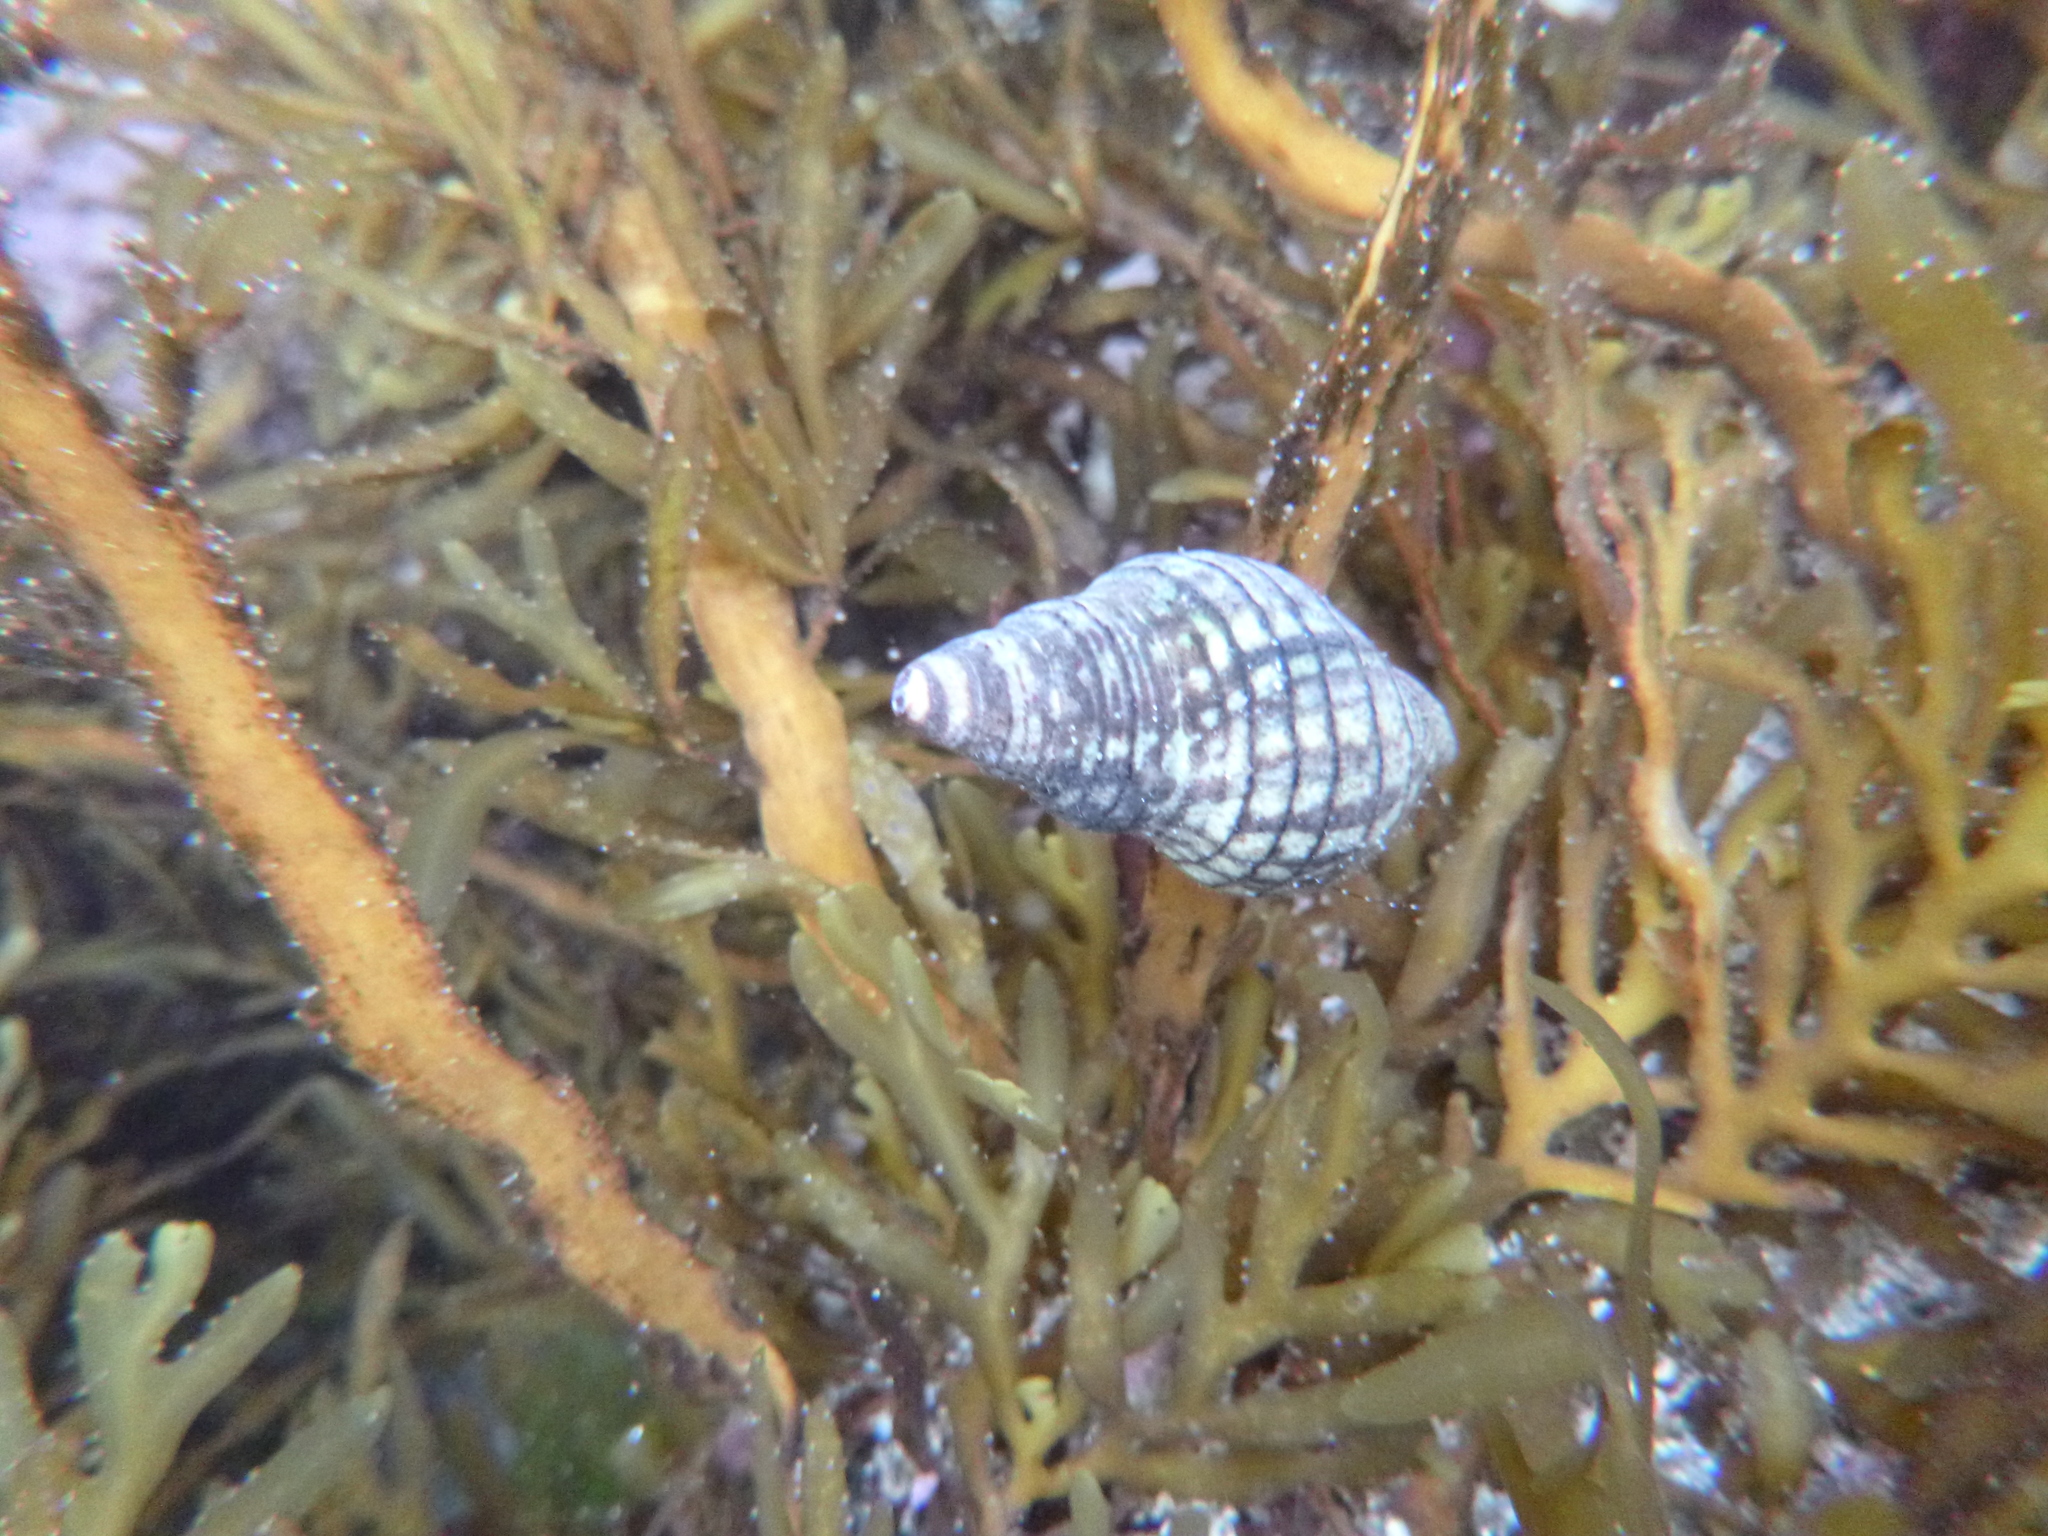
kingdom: Animalia
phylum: Mollusca
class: Gastropoda
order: Neogastropoda
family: Cominellidae
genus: Cominella
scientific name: Cominella virgata
